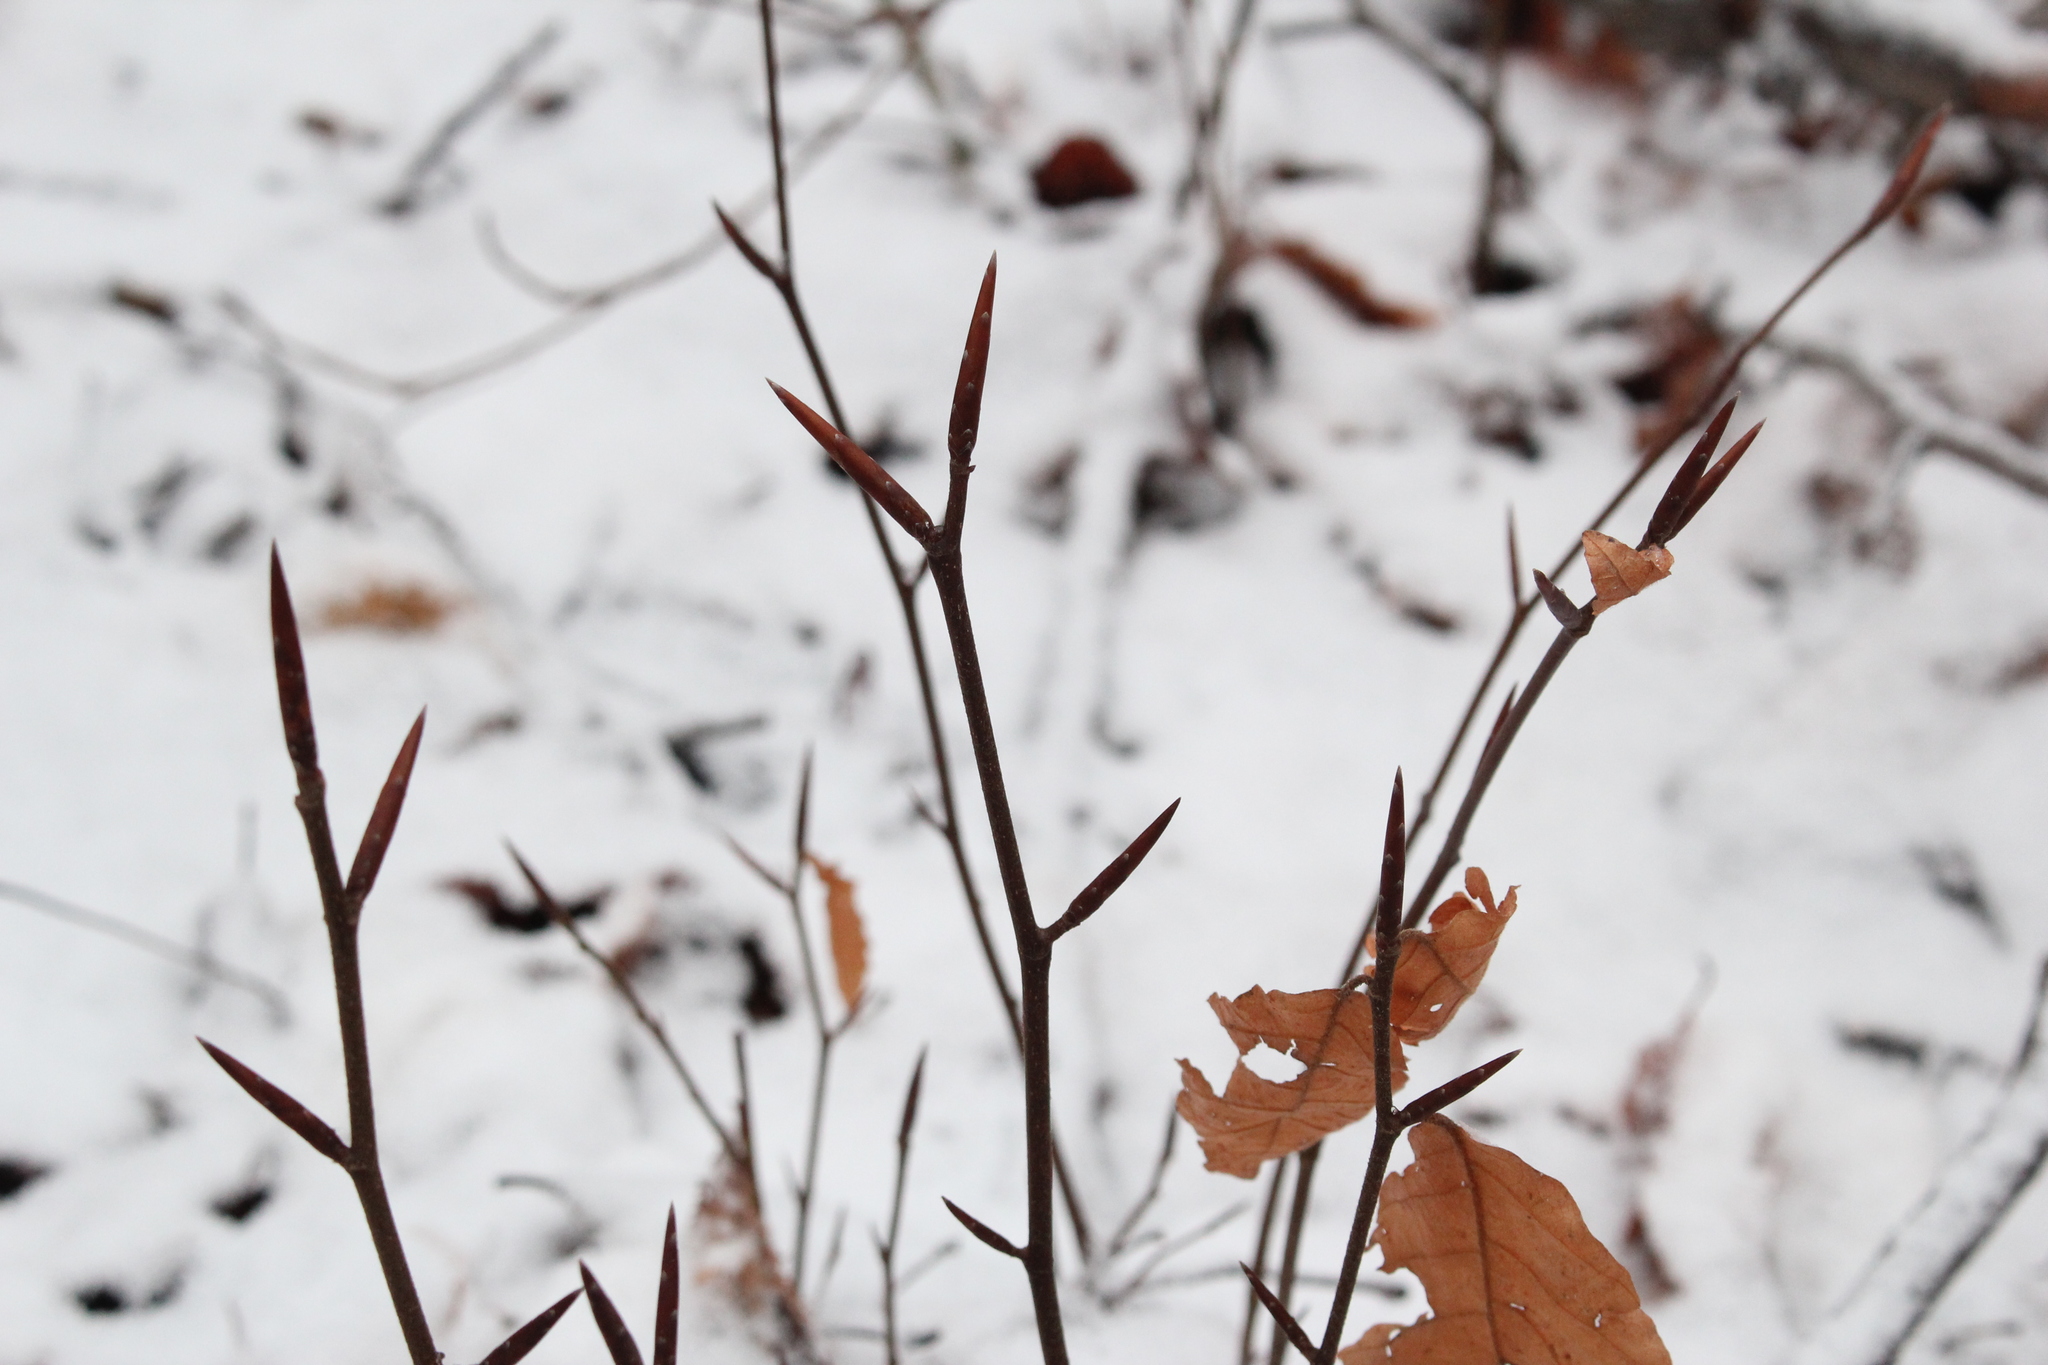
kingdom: Plantae
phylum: Tracheophyta
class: Magnoliopsida
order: Fagales
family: Fagaceae
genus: Fagus
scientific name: Fagus grandifolia
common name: American beech
